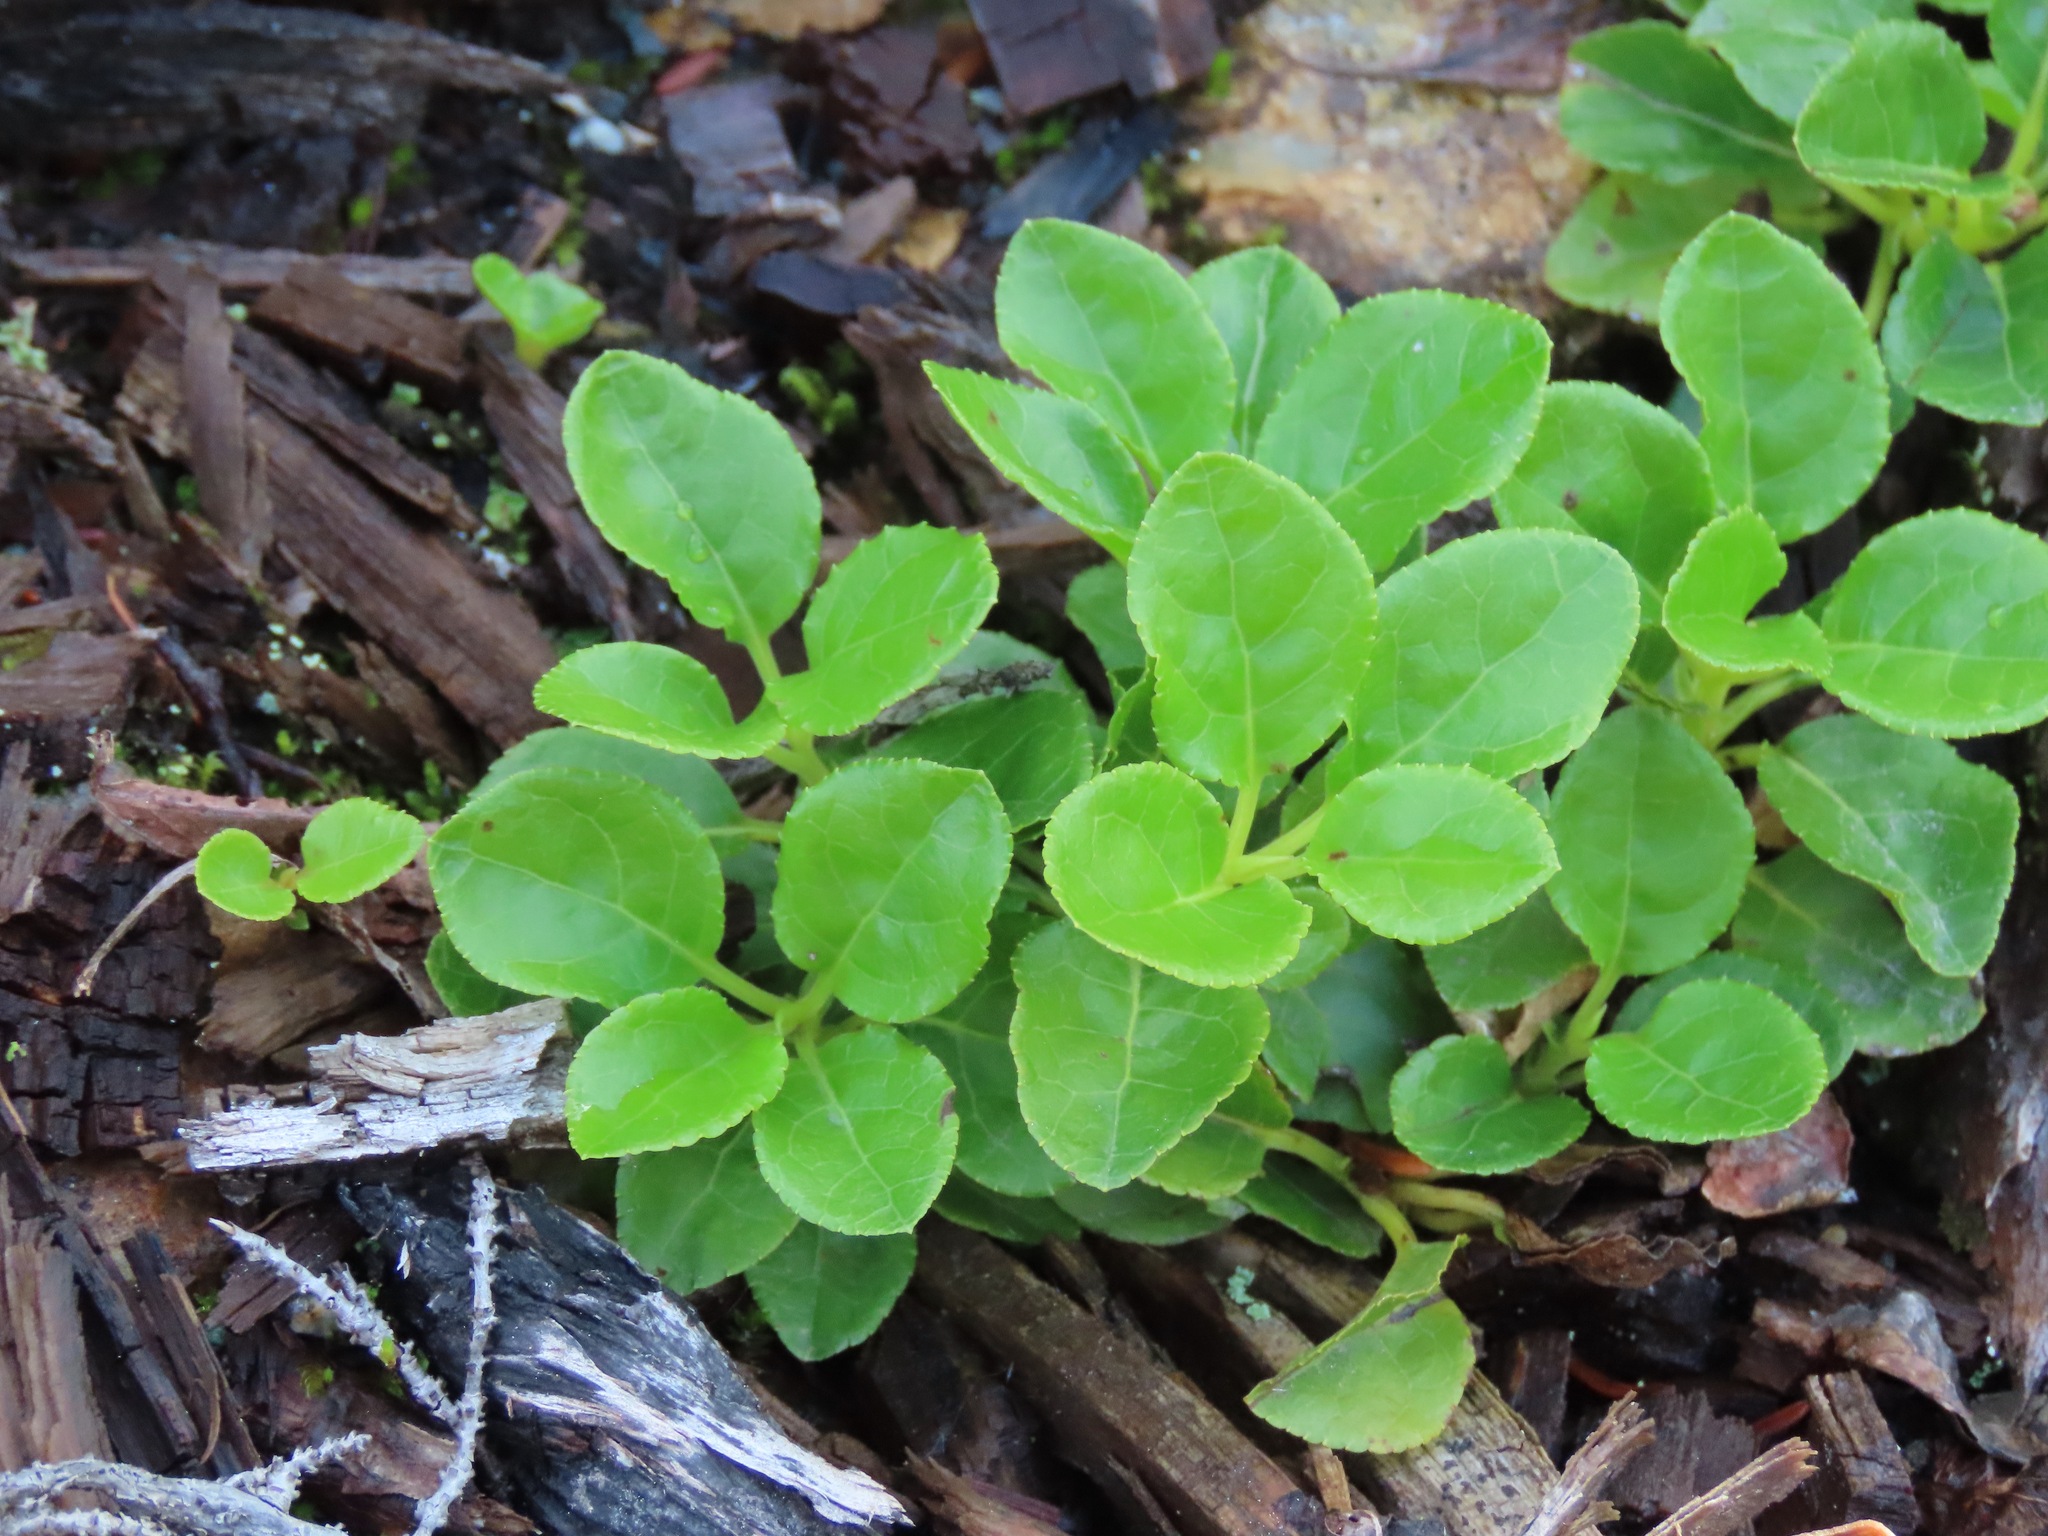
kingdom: Plantae
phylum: Tracheophyta
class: Magnoliopsida
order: Ericales
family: Ericaceae
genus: Orthilia
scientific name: Orthilia secunda
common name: One-sided orthilia
